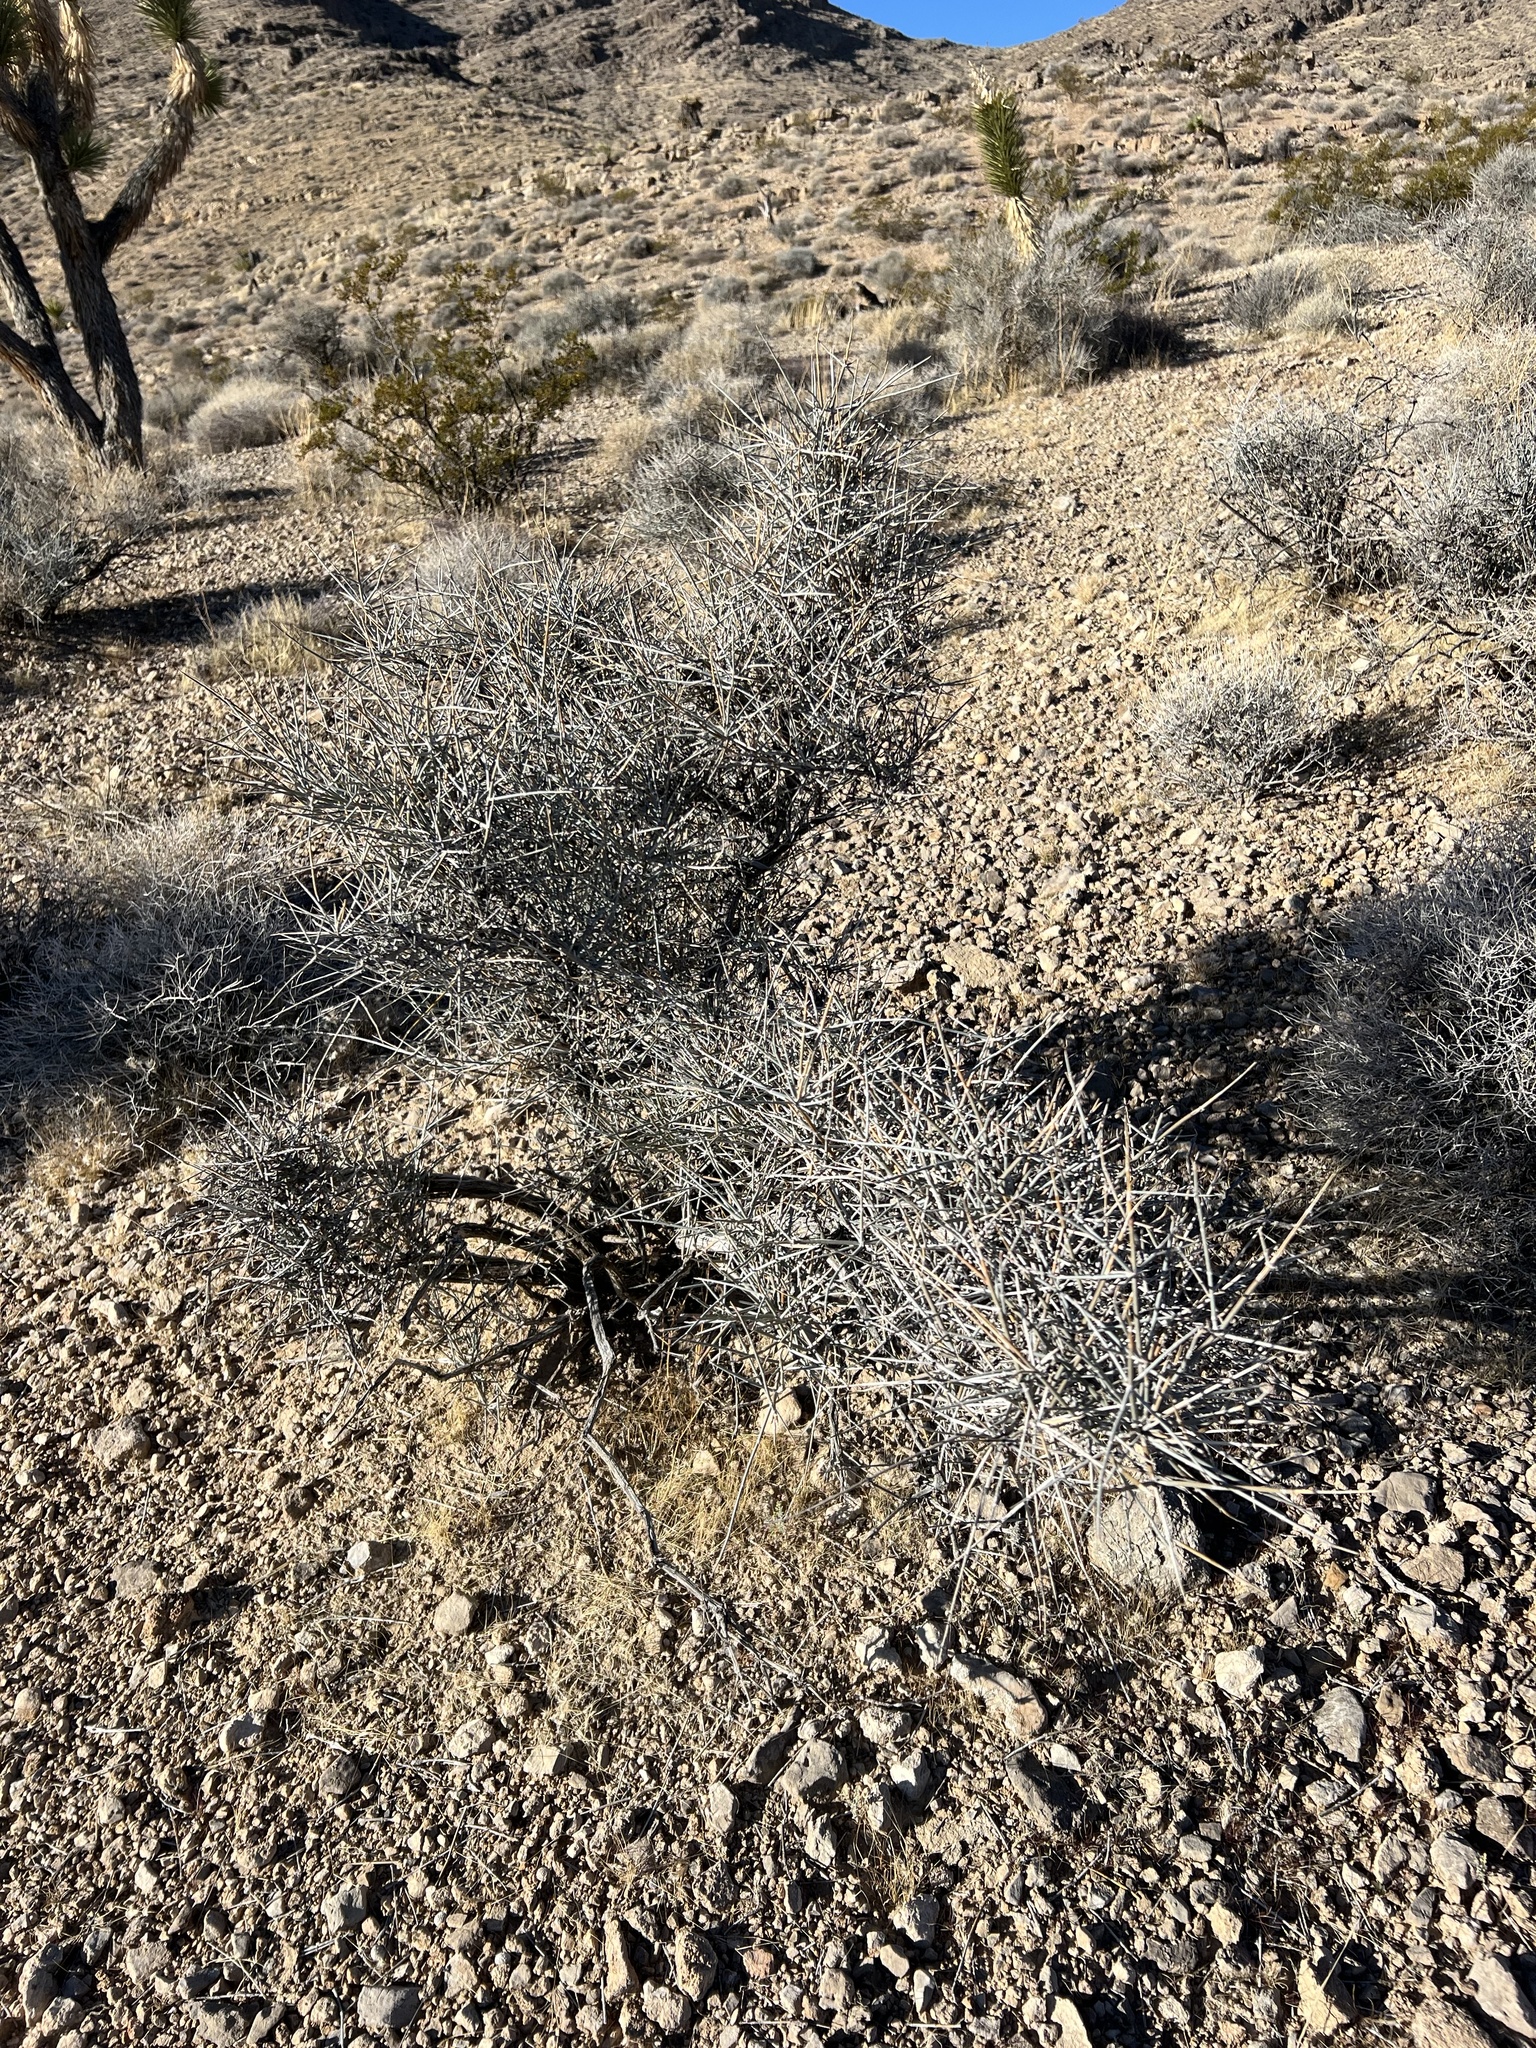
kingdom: Plantae
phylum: Tracheophyta
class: Gnetopsida
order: Ephedrales
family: Ephedraceae
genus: Ephedra
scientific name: Ephedra nevadensis
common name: Gray ephedra
